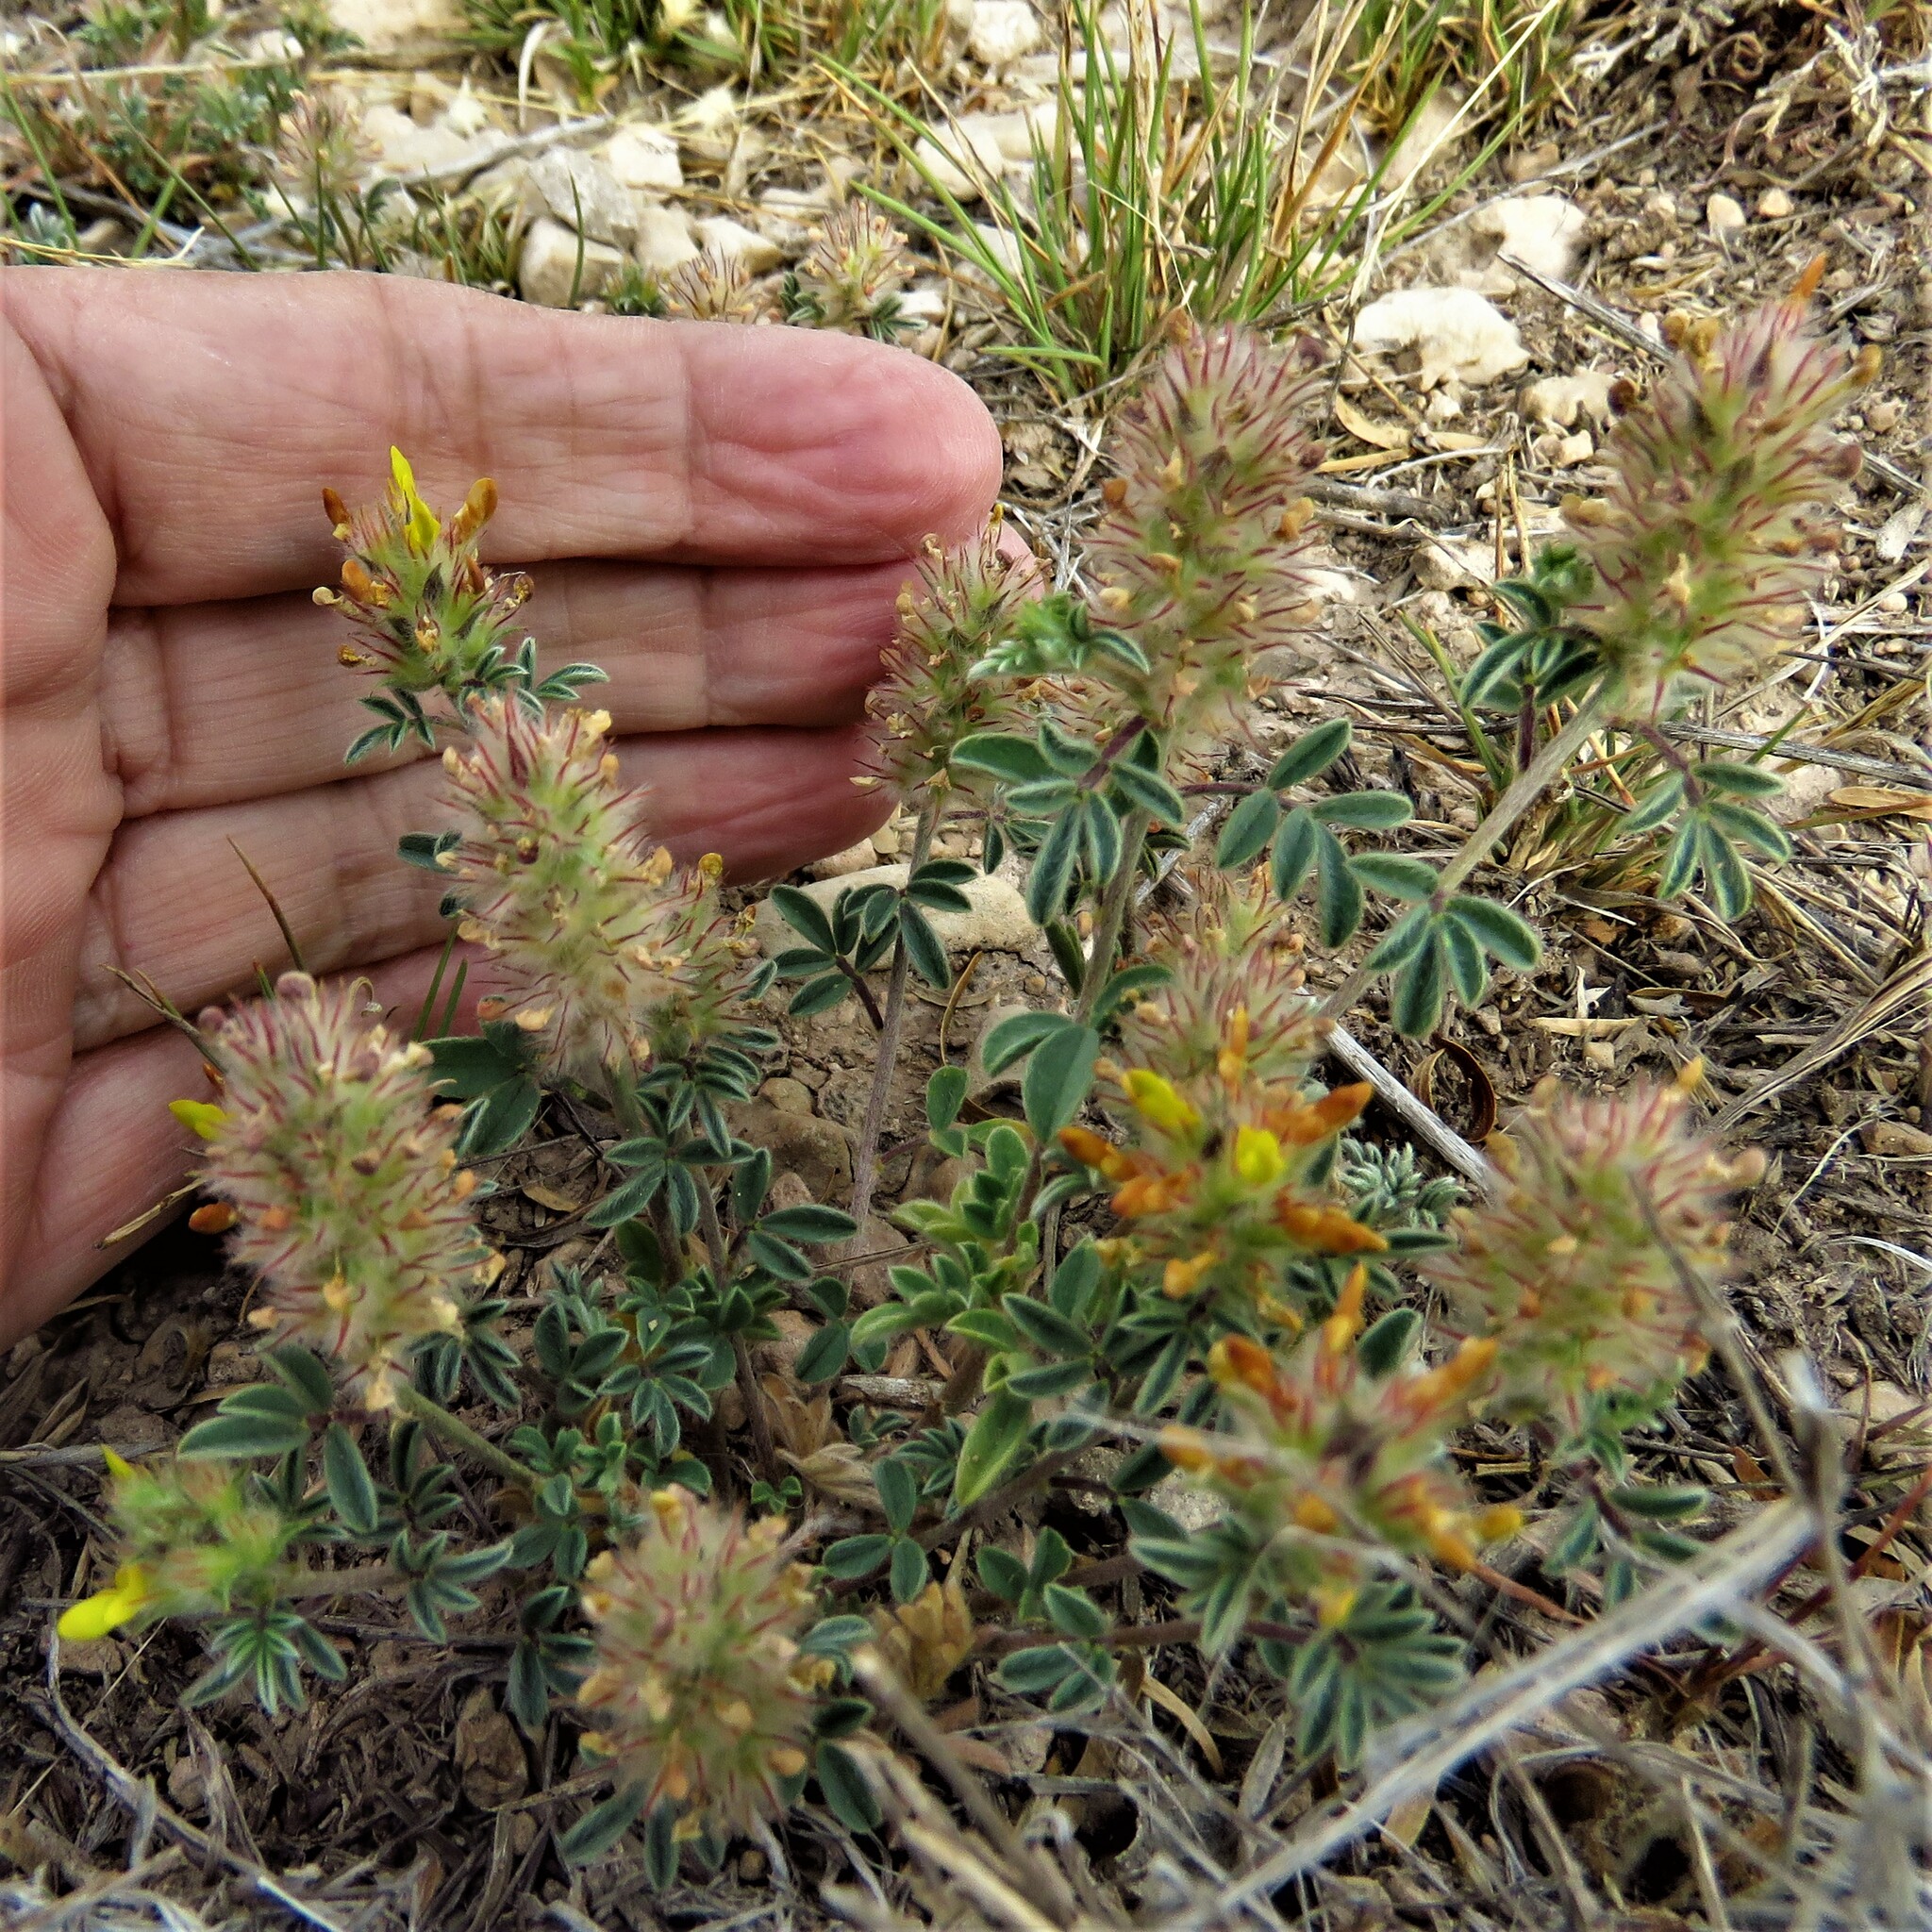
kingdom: Plantae
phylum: Tracheophyta
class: Magnoliopsida
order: Fabales
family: Fabaceae
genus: Dalea
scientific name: Dalea nana
